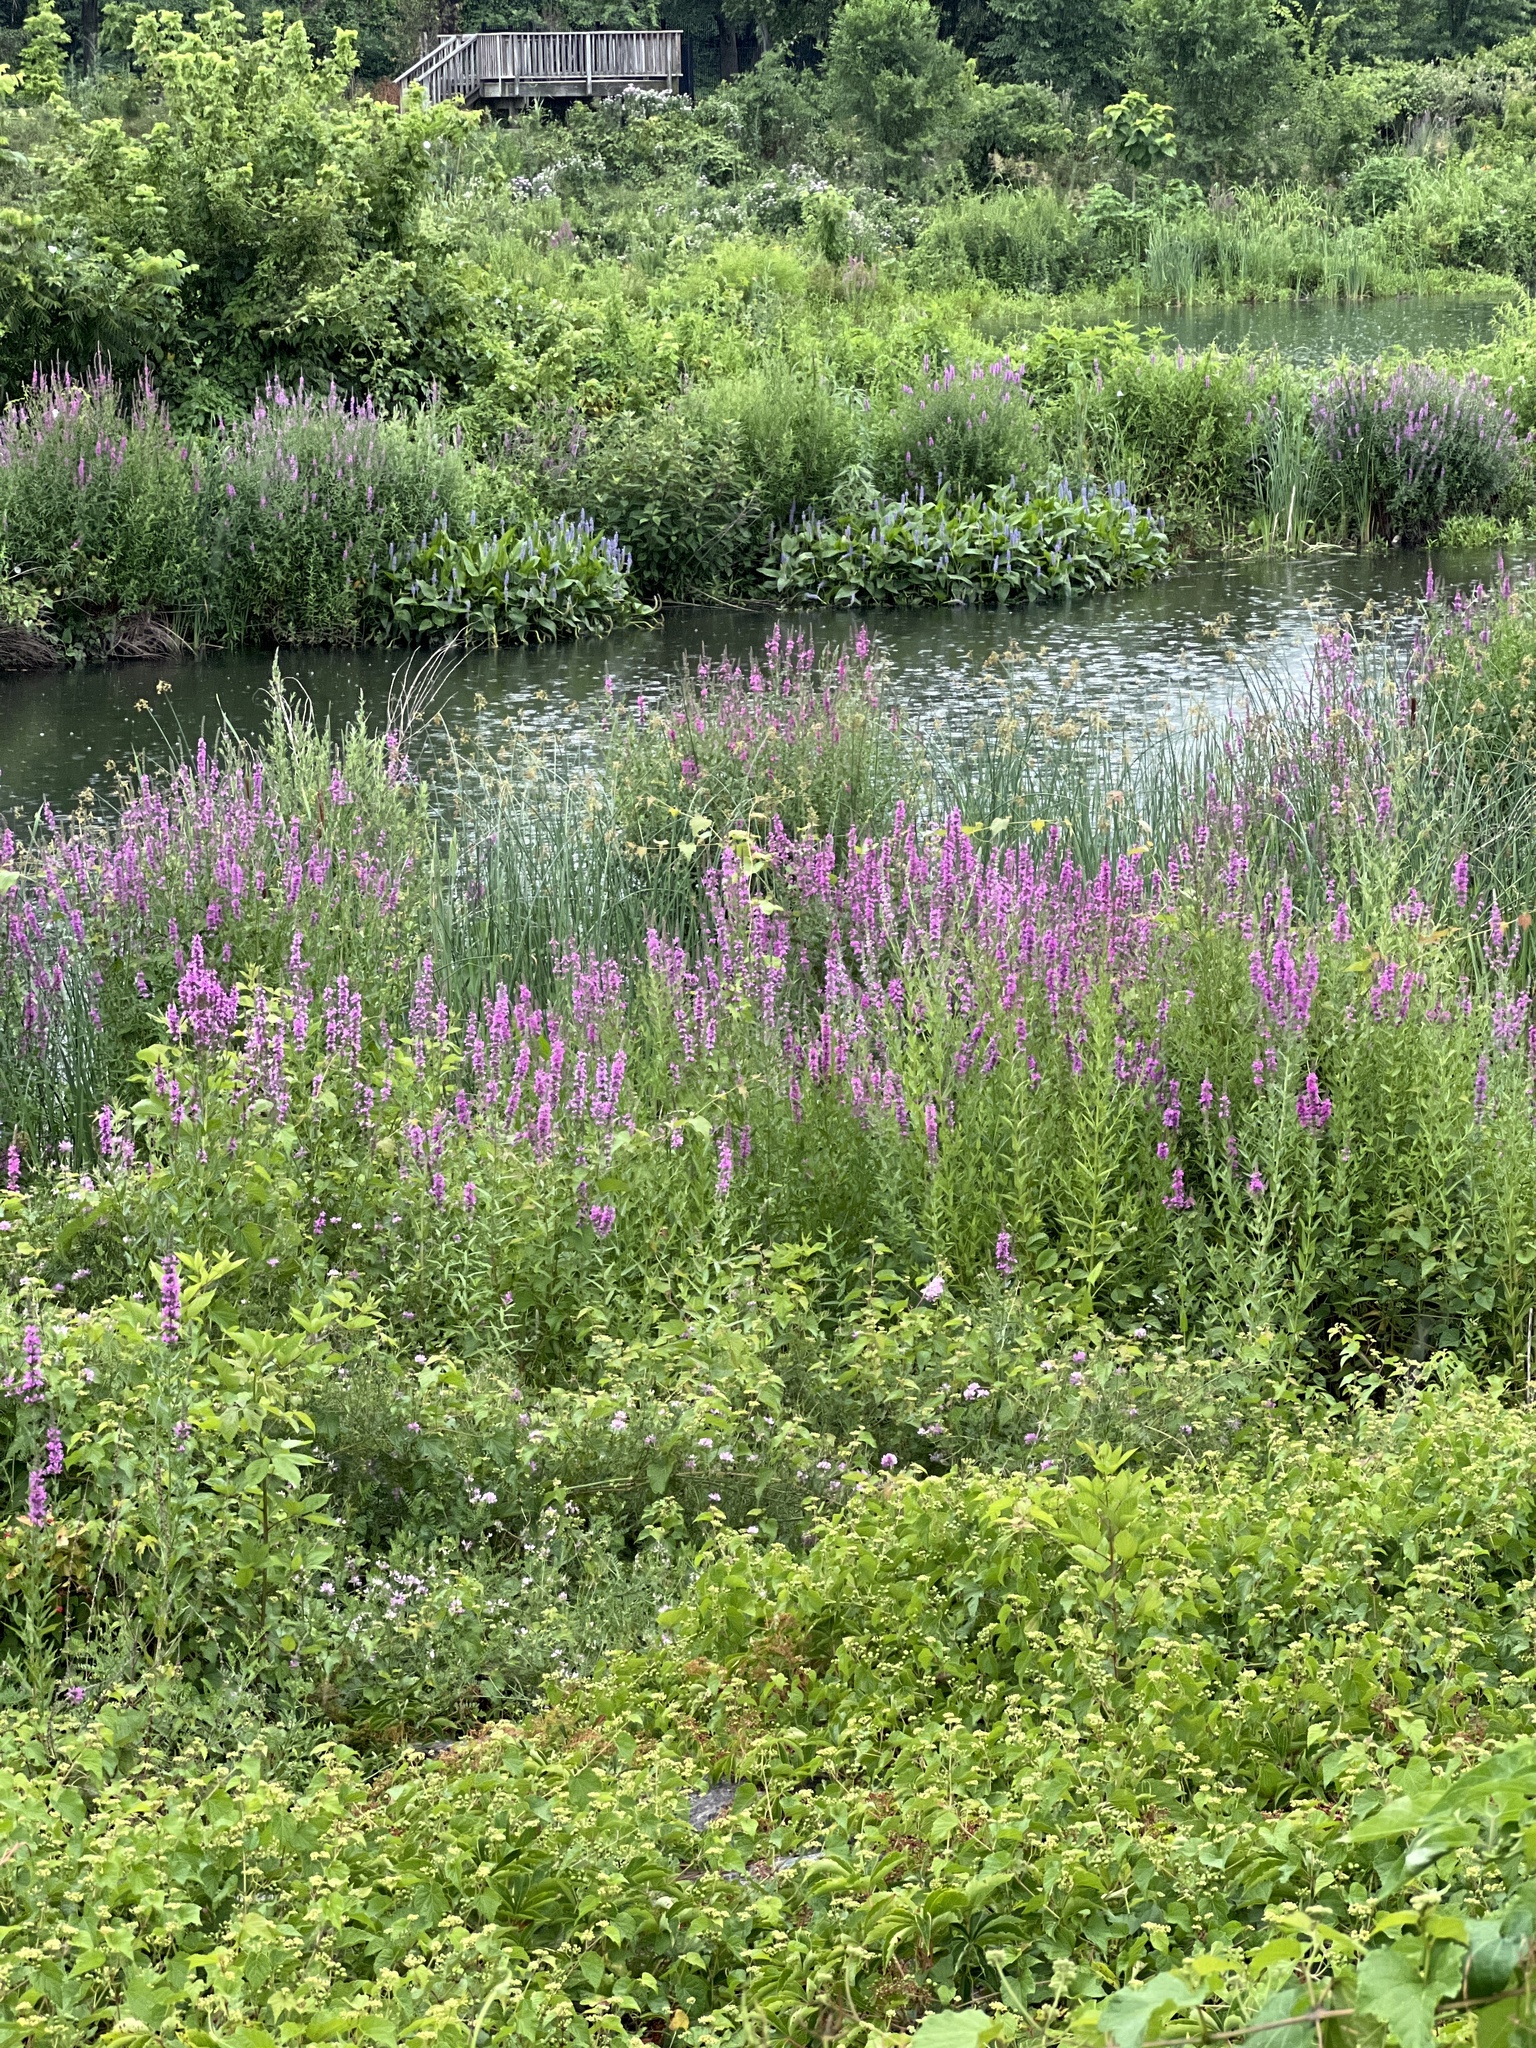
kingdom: Plantae
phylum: Tracheophyta
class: Magnoliopsida
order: Myrtales
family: Lythraceae
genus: Lythrum
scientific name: Lythrum salicaria
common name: Purple loosestrife
